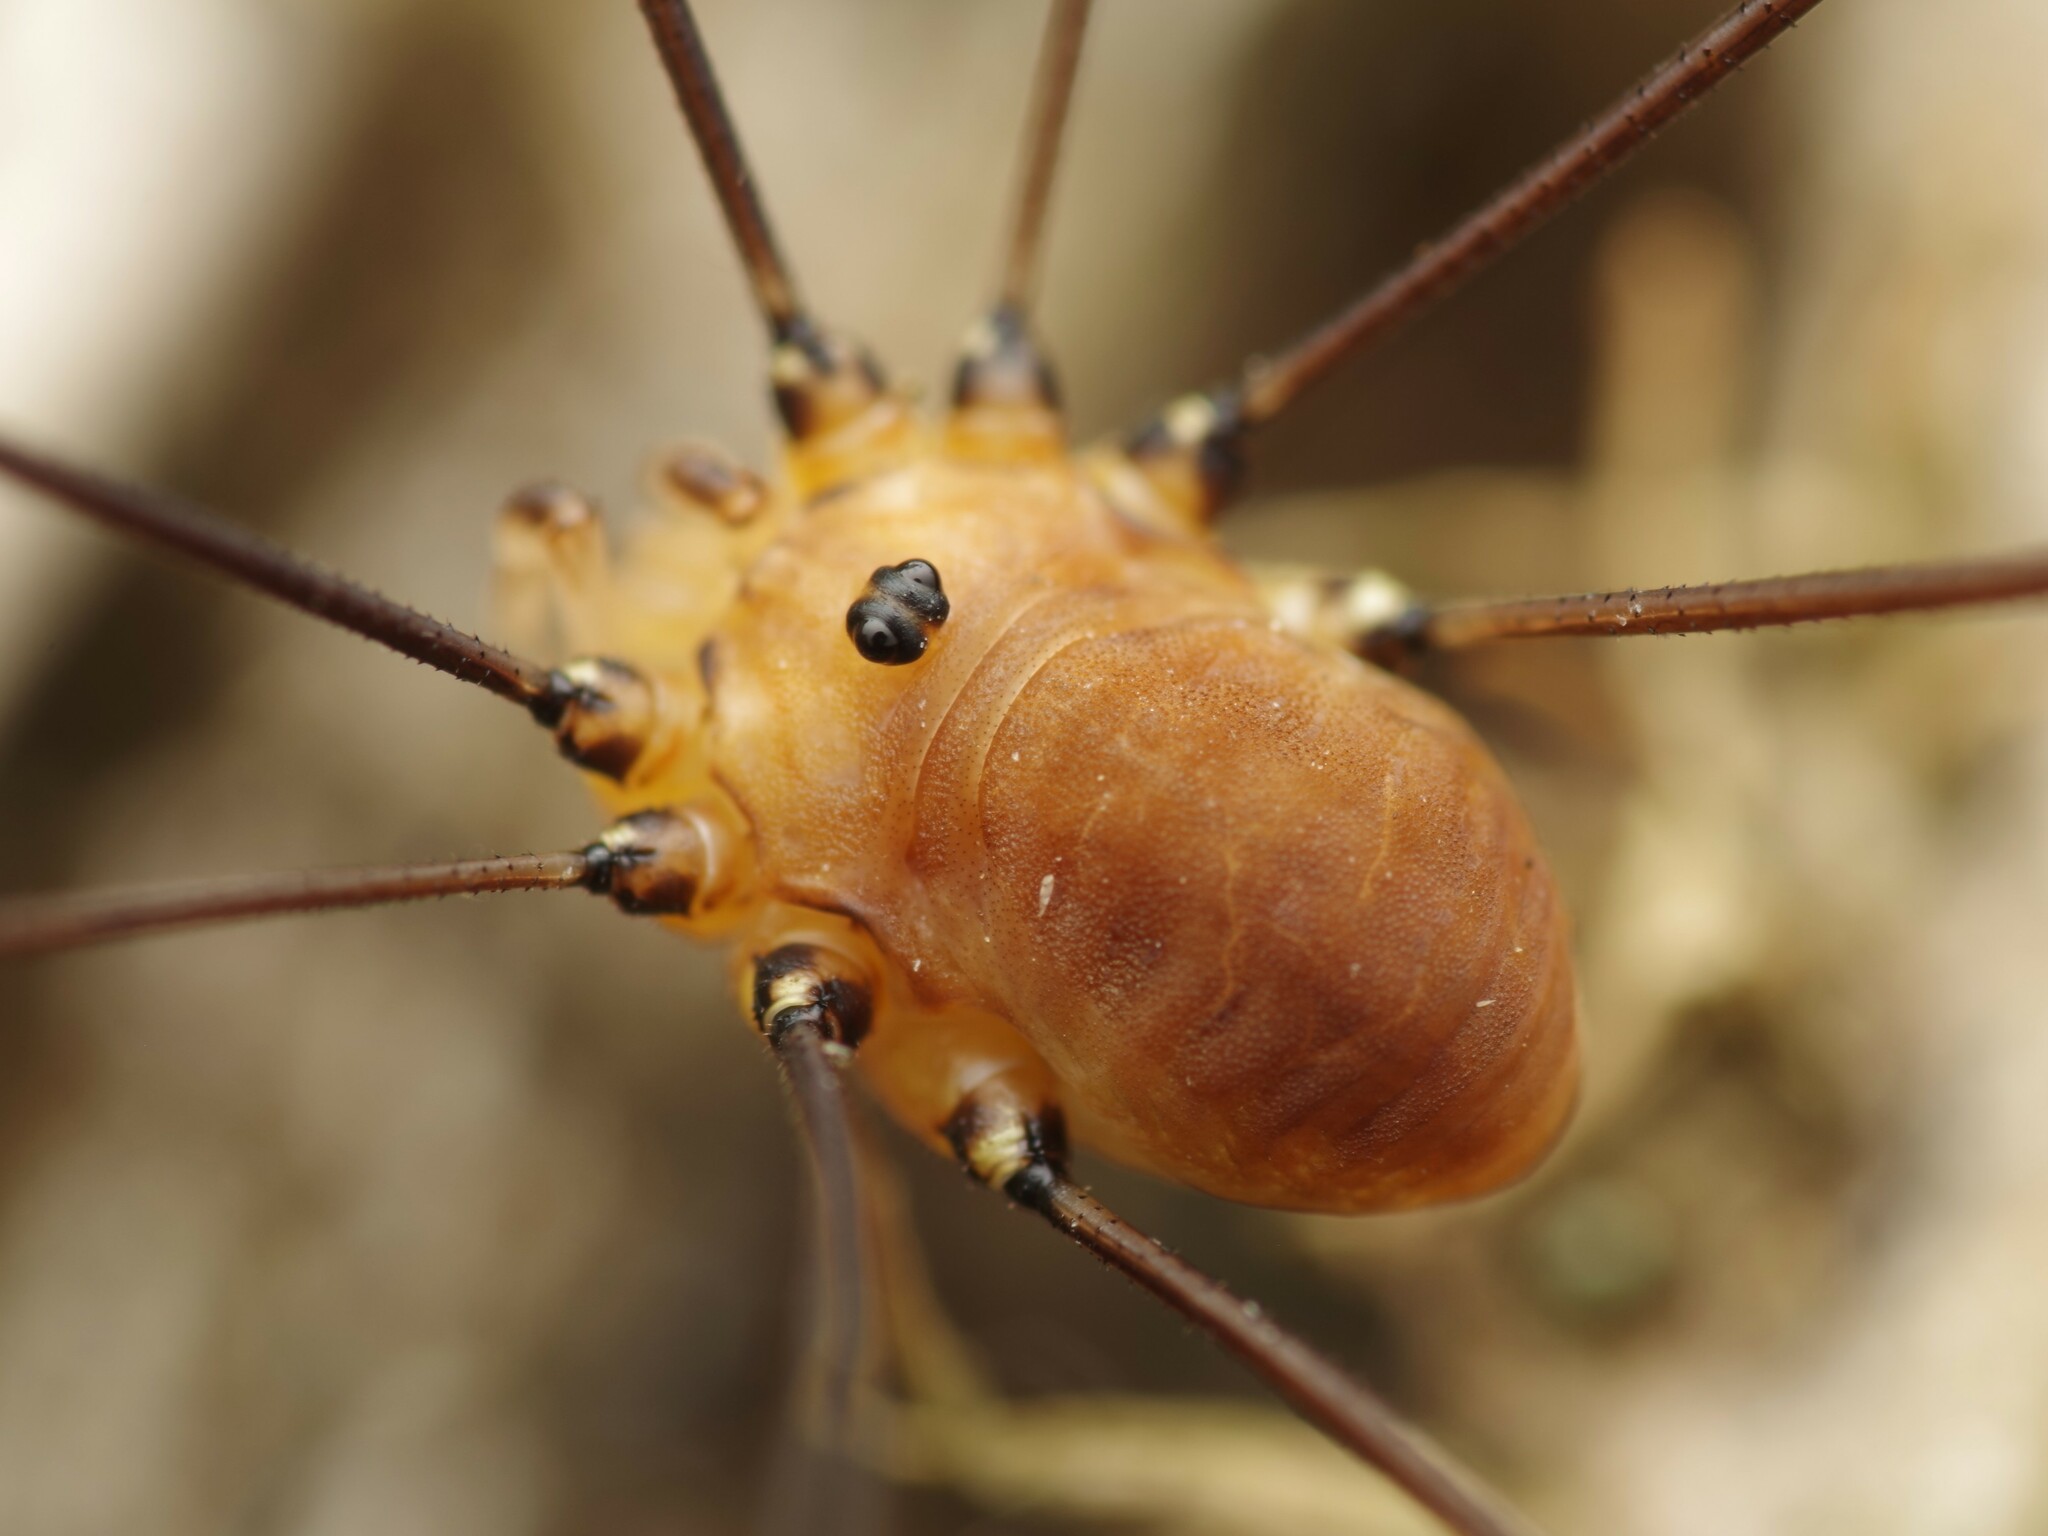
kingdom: Animalia
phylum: Arthropoda
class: Arachnida
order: Opiliones
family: Sclerosomatidae
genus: Leiobunum
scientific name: Leiobunum rotundum
